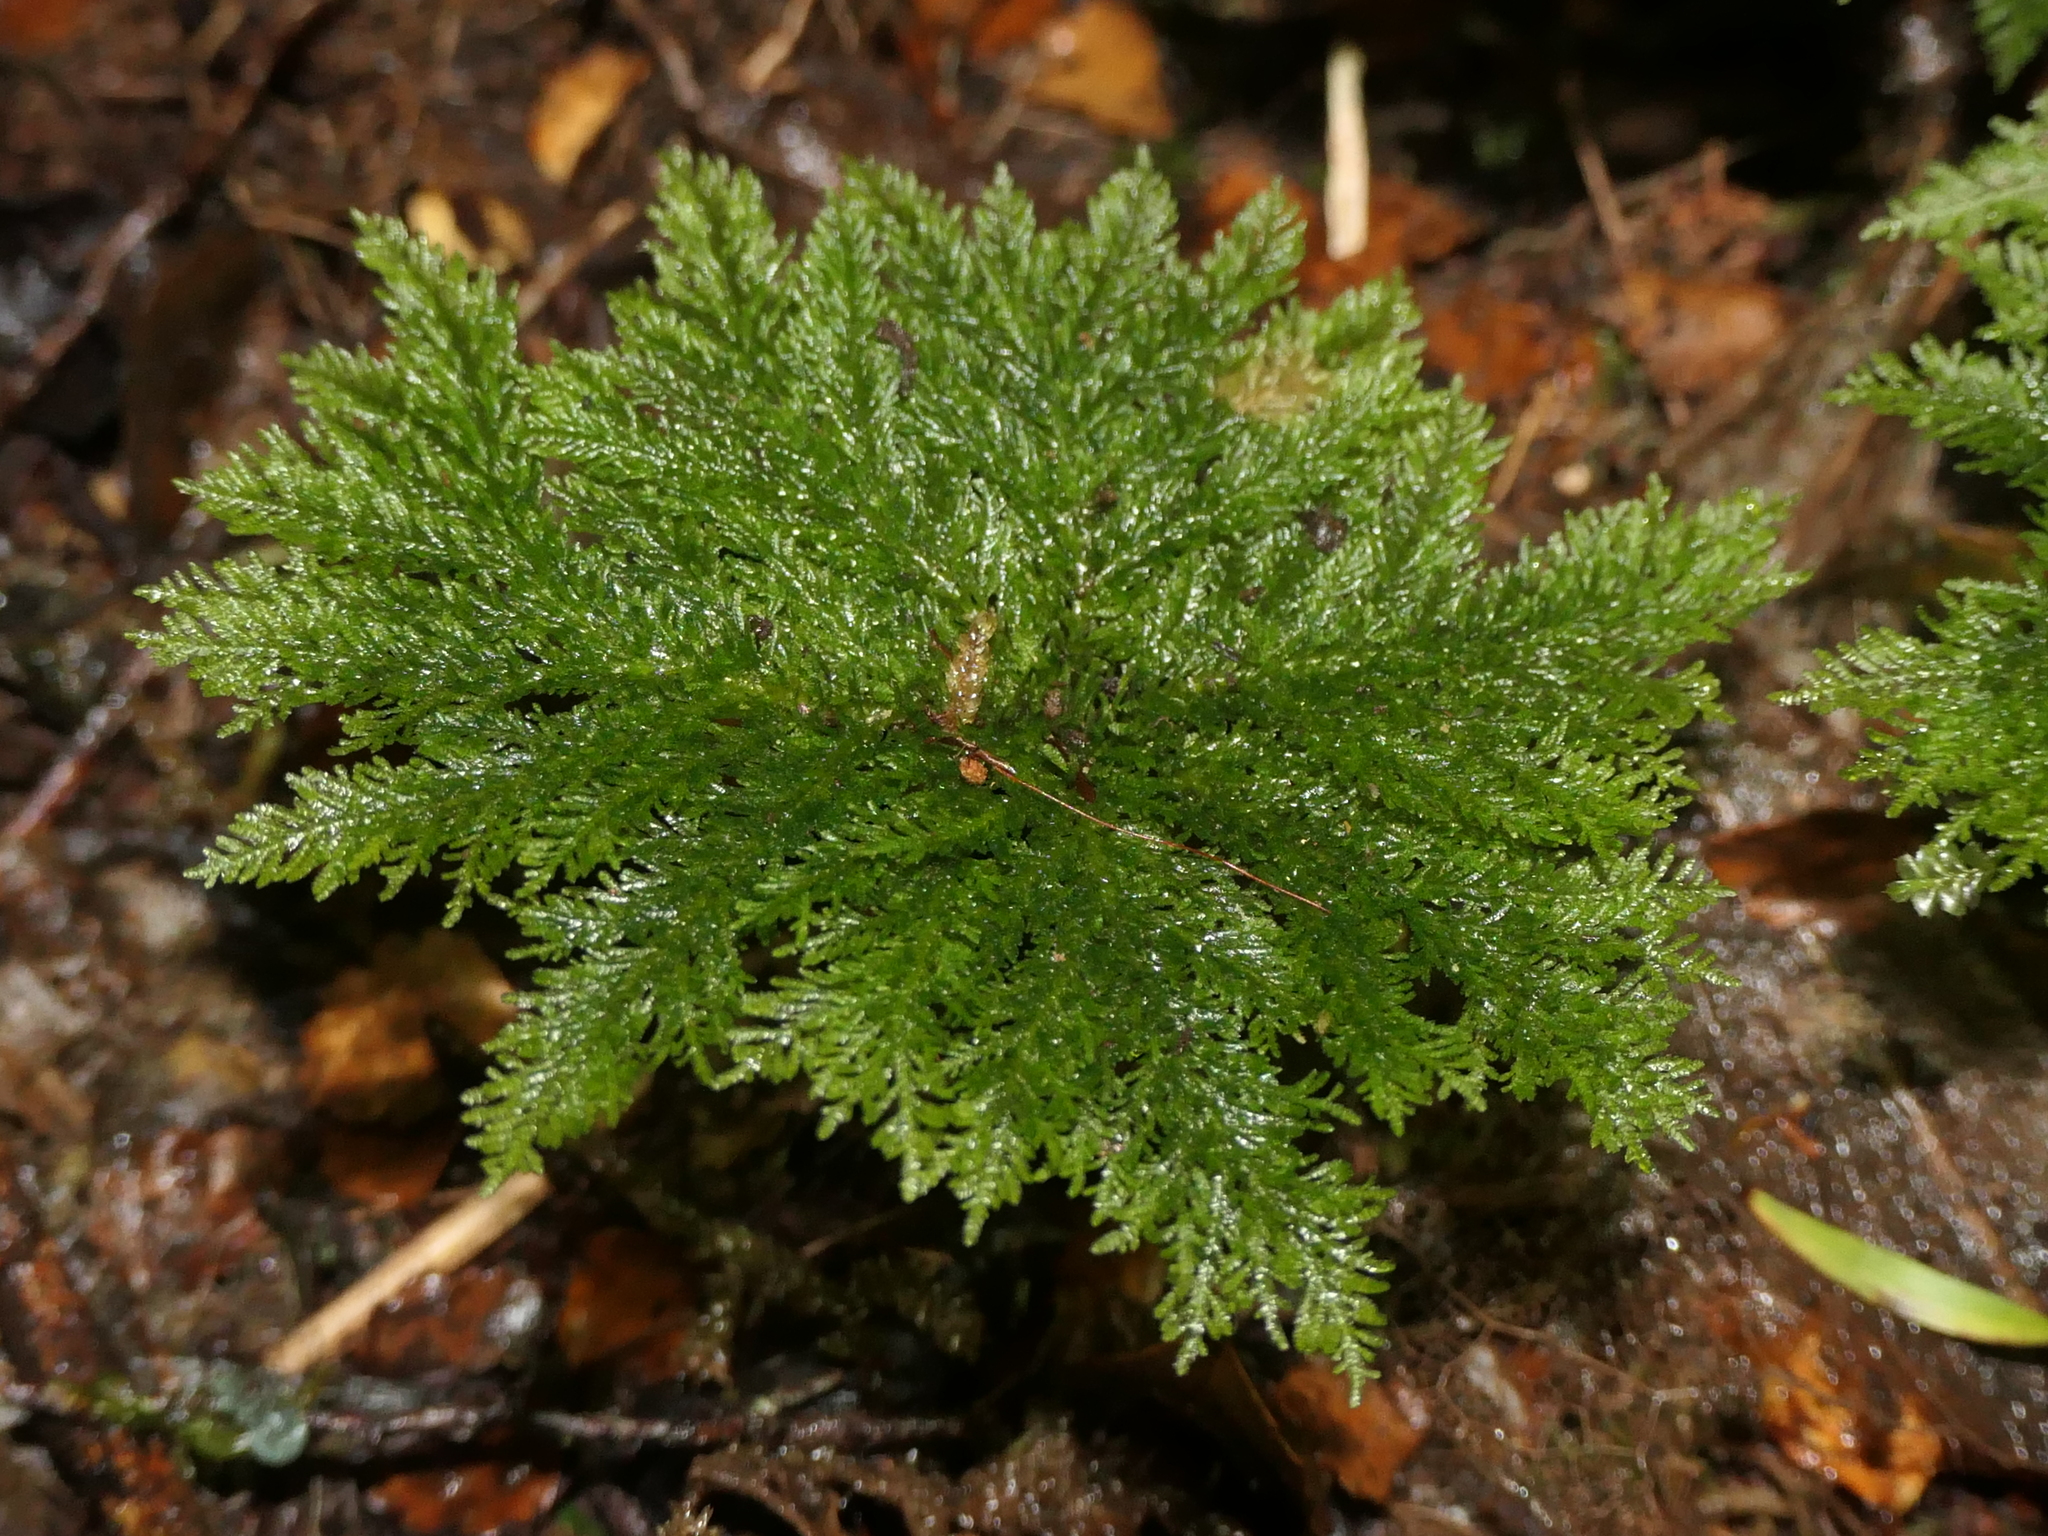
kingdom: Plantae
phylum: Bryophyta
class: Bryopsida
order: Hypopterygiales
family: Hypopterygiaceae
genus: Dendrohypopterygium
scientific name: Dendrohypopterygium filiculiforme
